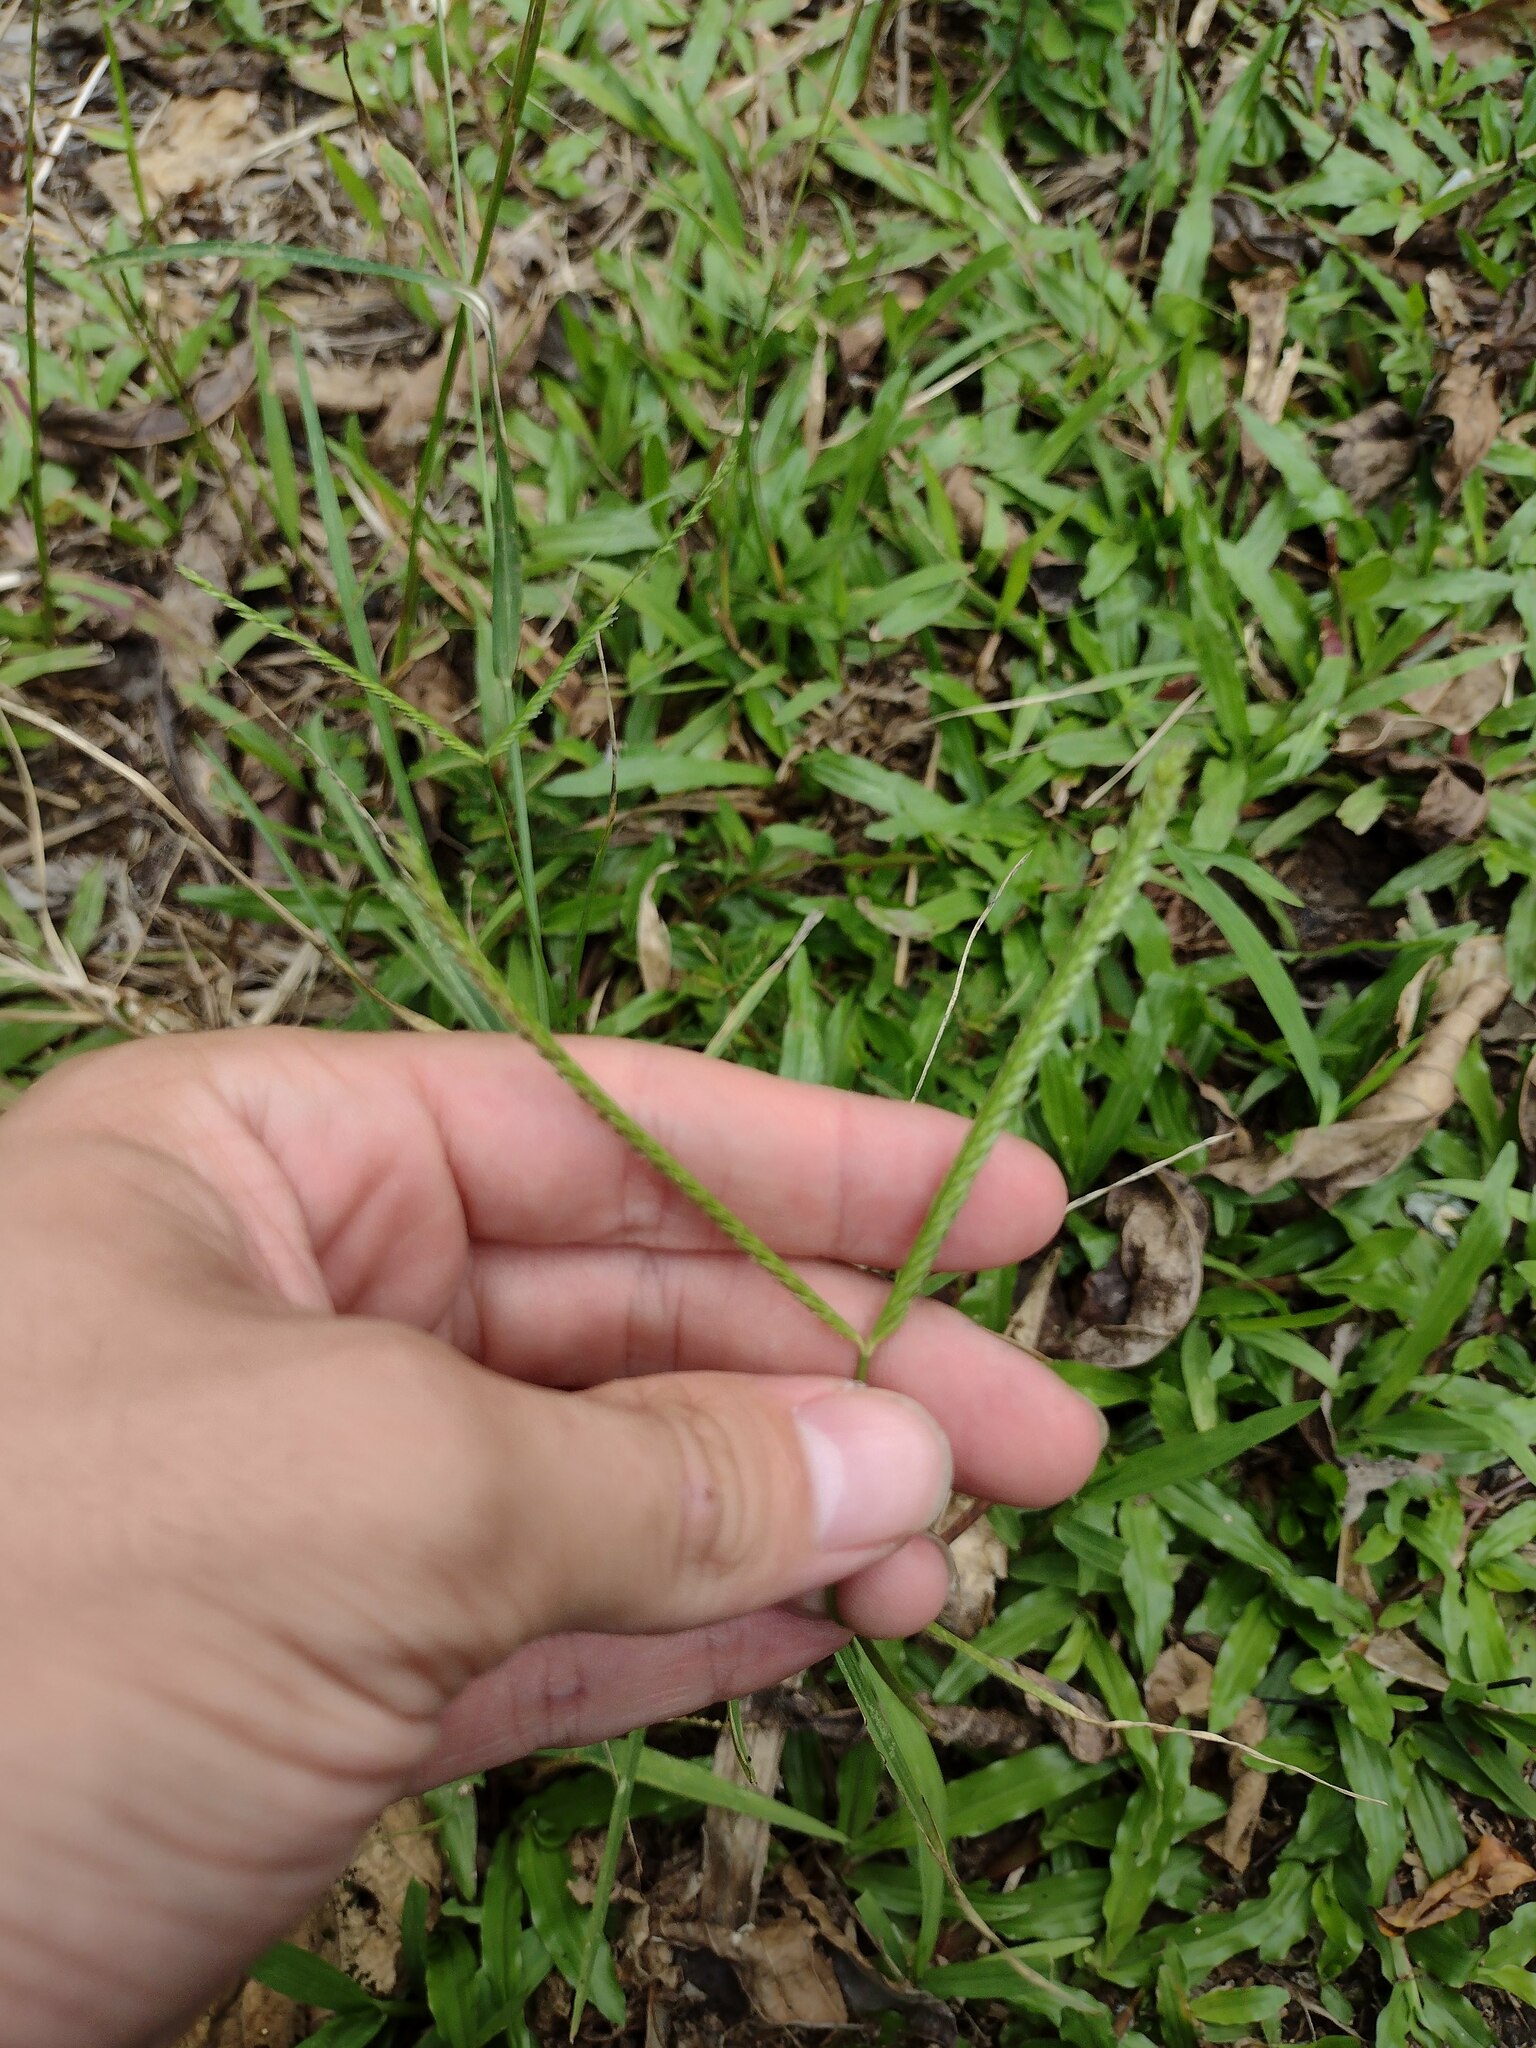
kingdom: Plantae
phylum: Tracheophyta
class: Liliopsida
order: Poales
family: Poaceae
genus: Eleusine
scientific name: Eleusine indica
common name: Yard-grass
